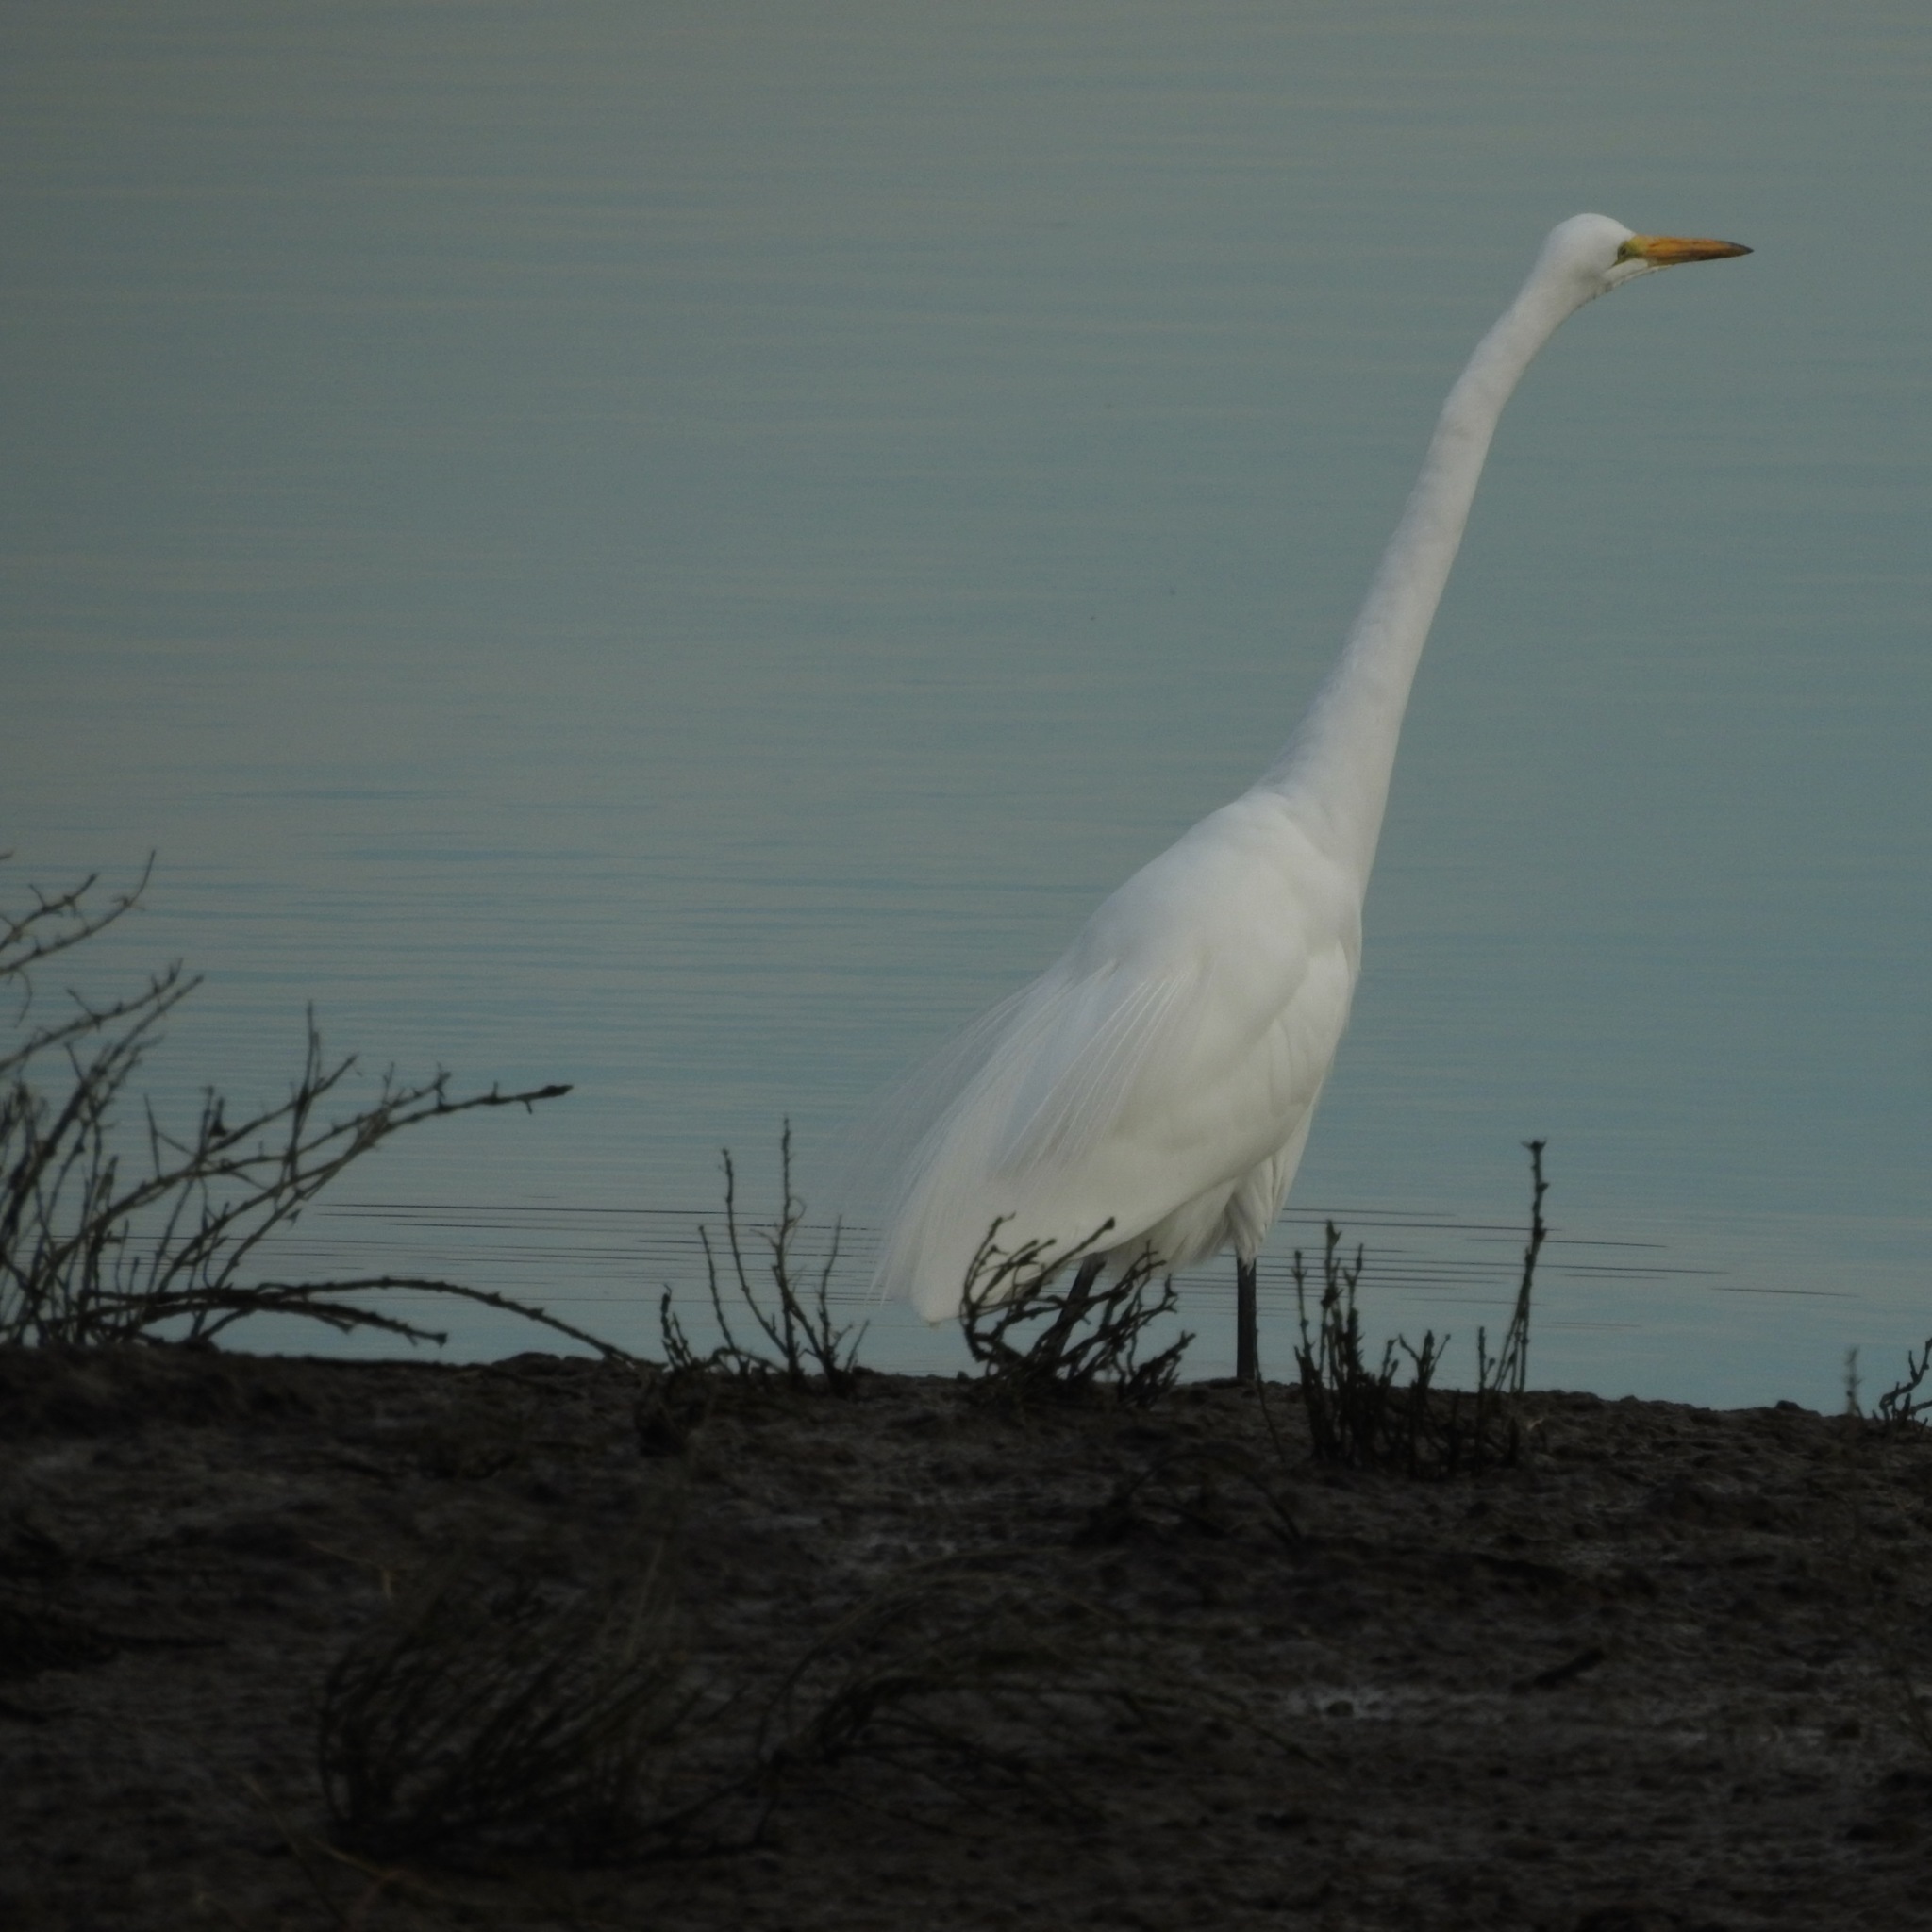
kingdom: Animalia
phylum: Chordata
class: Aves
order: Pelecaniformes
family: Ardeidae
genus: Ardea
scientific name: Ardea alba
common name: Great egret
